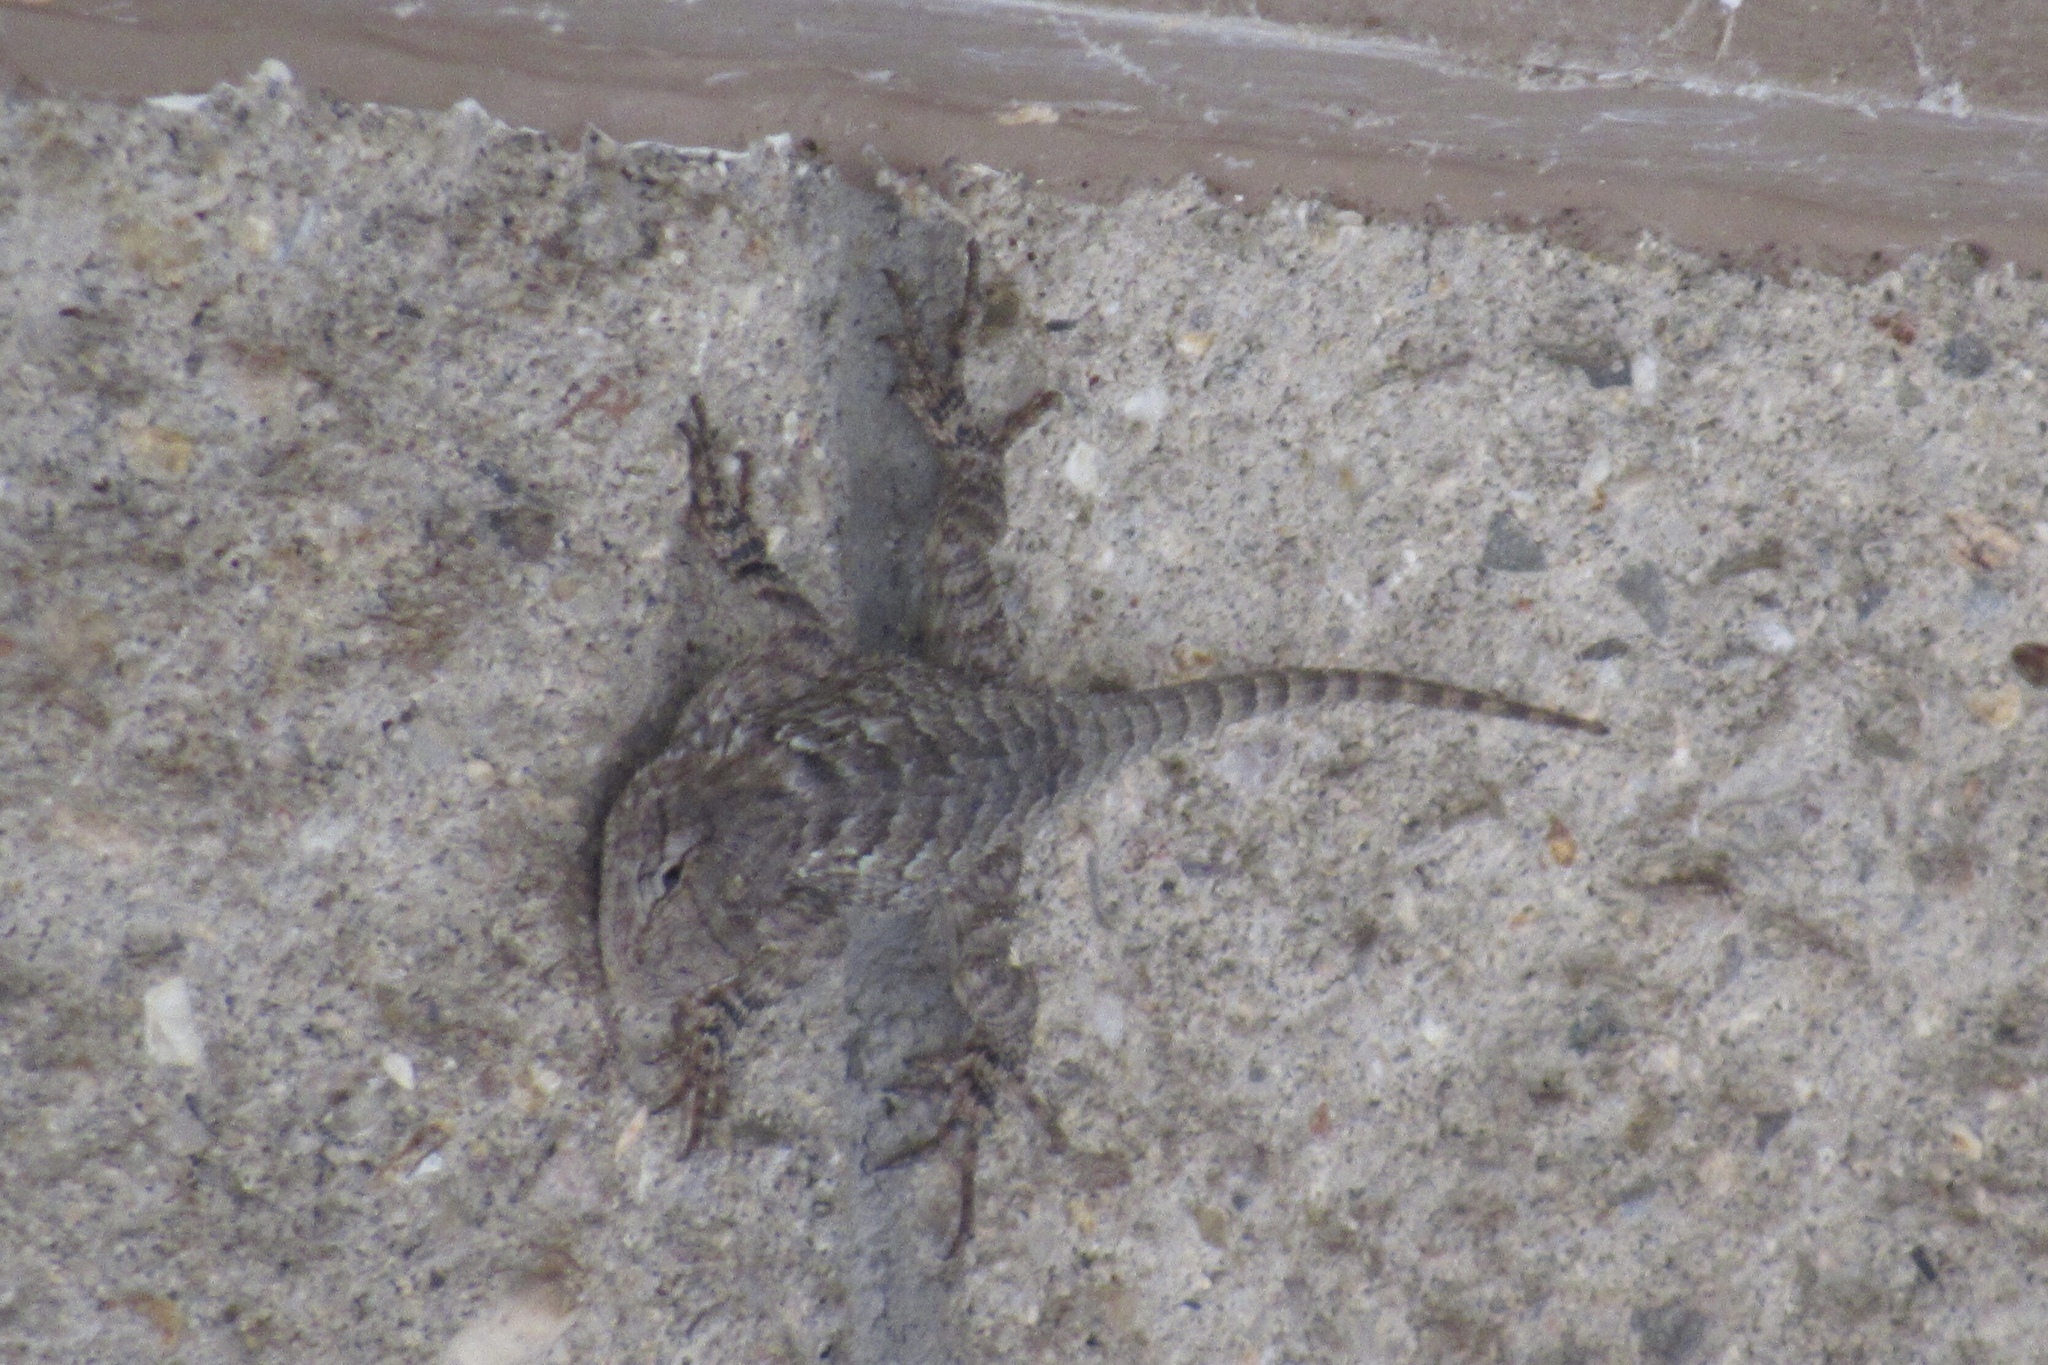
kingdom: Animalia
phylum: Chordata
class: Squamata
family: Phrynosomatidae
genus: Sceloporus
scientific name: Sceloporus clarkii
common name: Clark's spiny lizard
